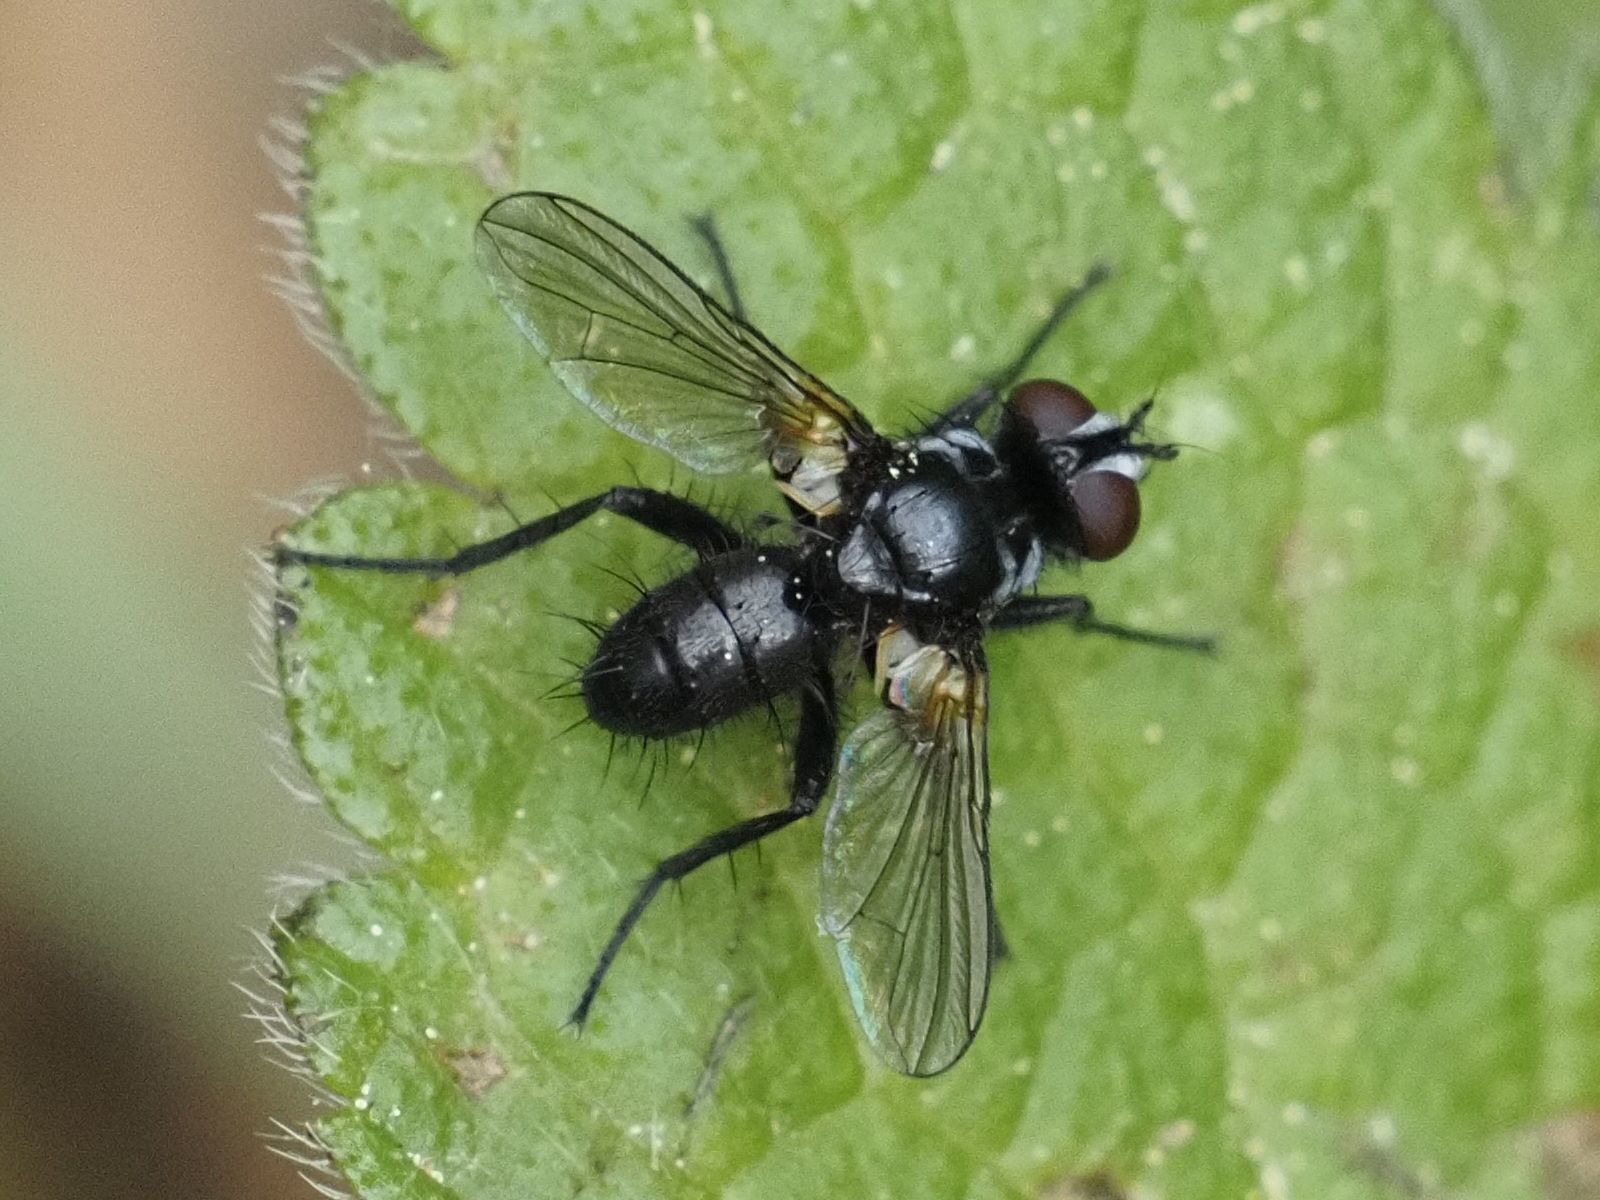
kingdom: Animalia
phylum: Arthropoda
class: Insecta
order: Diptera
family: Tachinidae
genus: Phania
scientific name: Phania funesta
